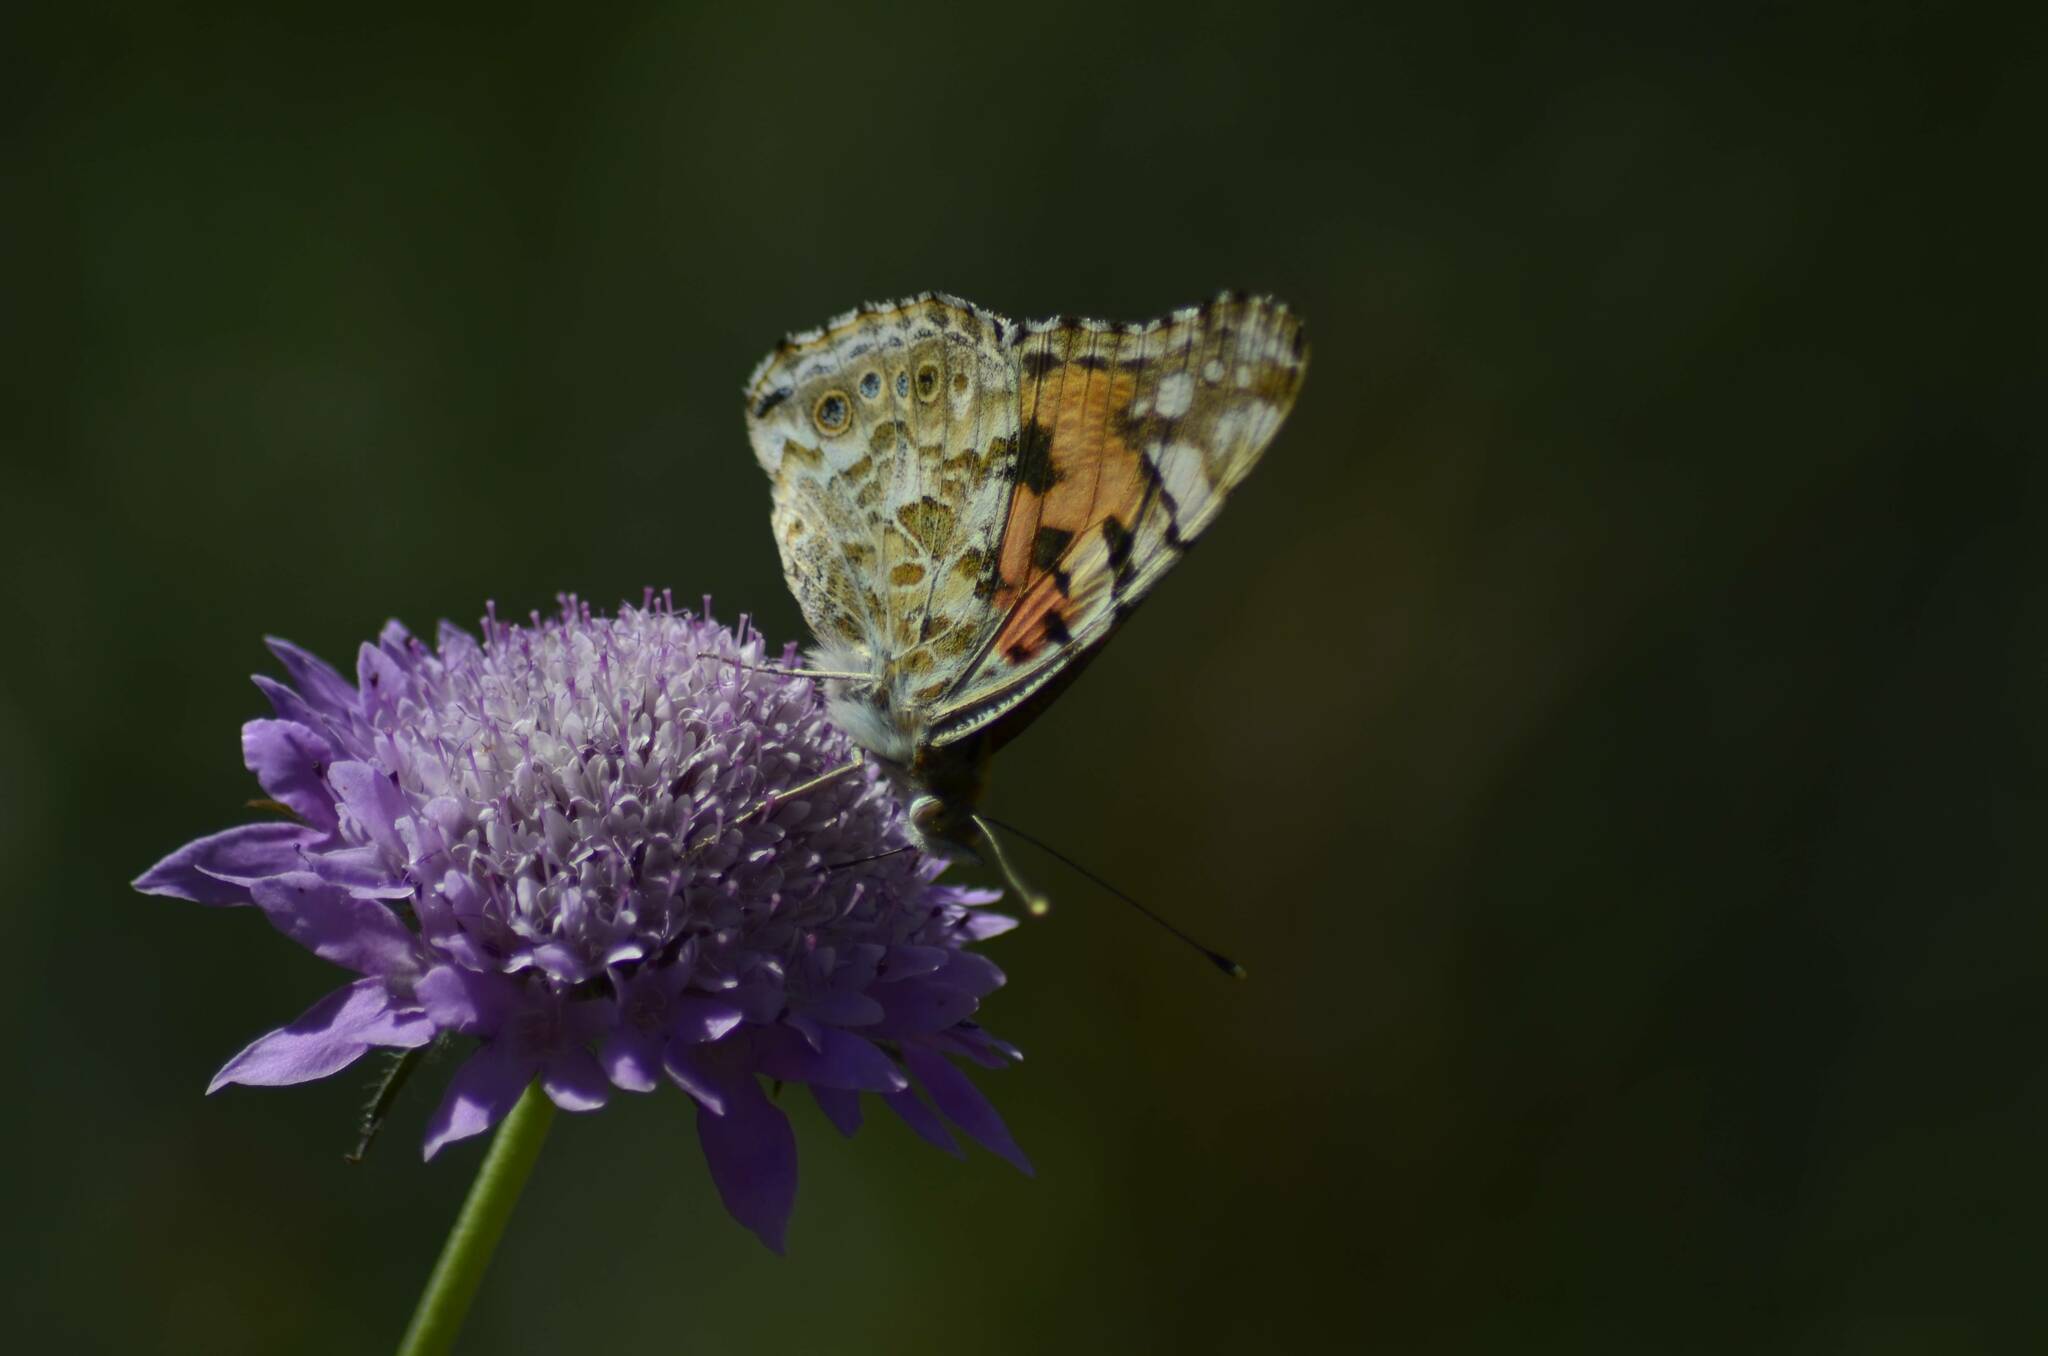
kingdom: Animalia
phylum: Arthropoda
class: Insecta
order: Lepidoptera
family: Nymphalidae
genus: Vanessa
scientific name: Vanessa cardui
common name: Painted lady
